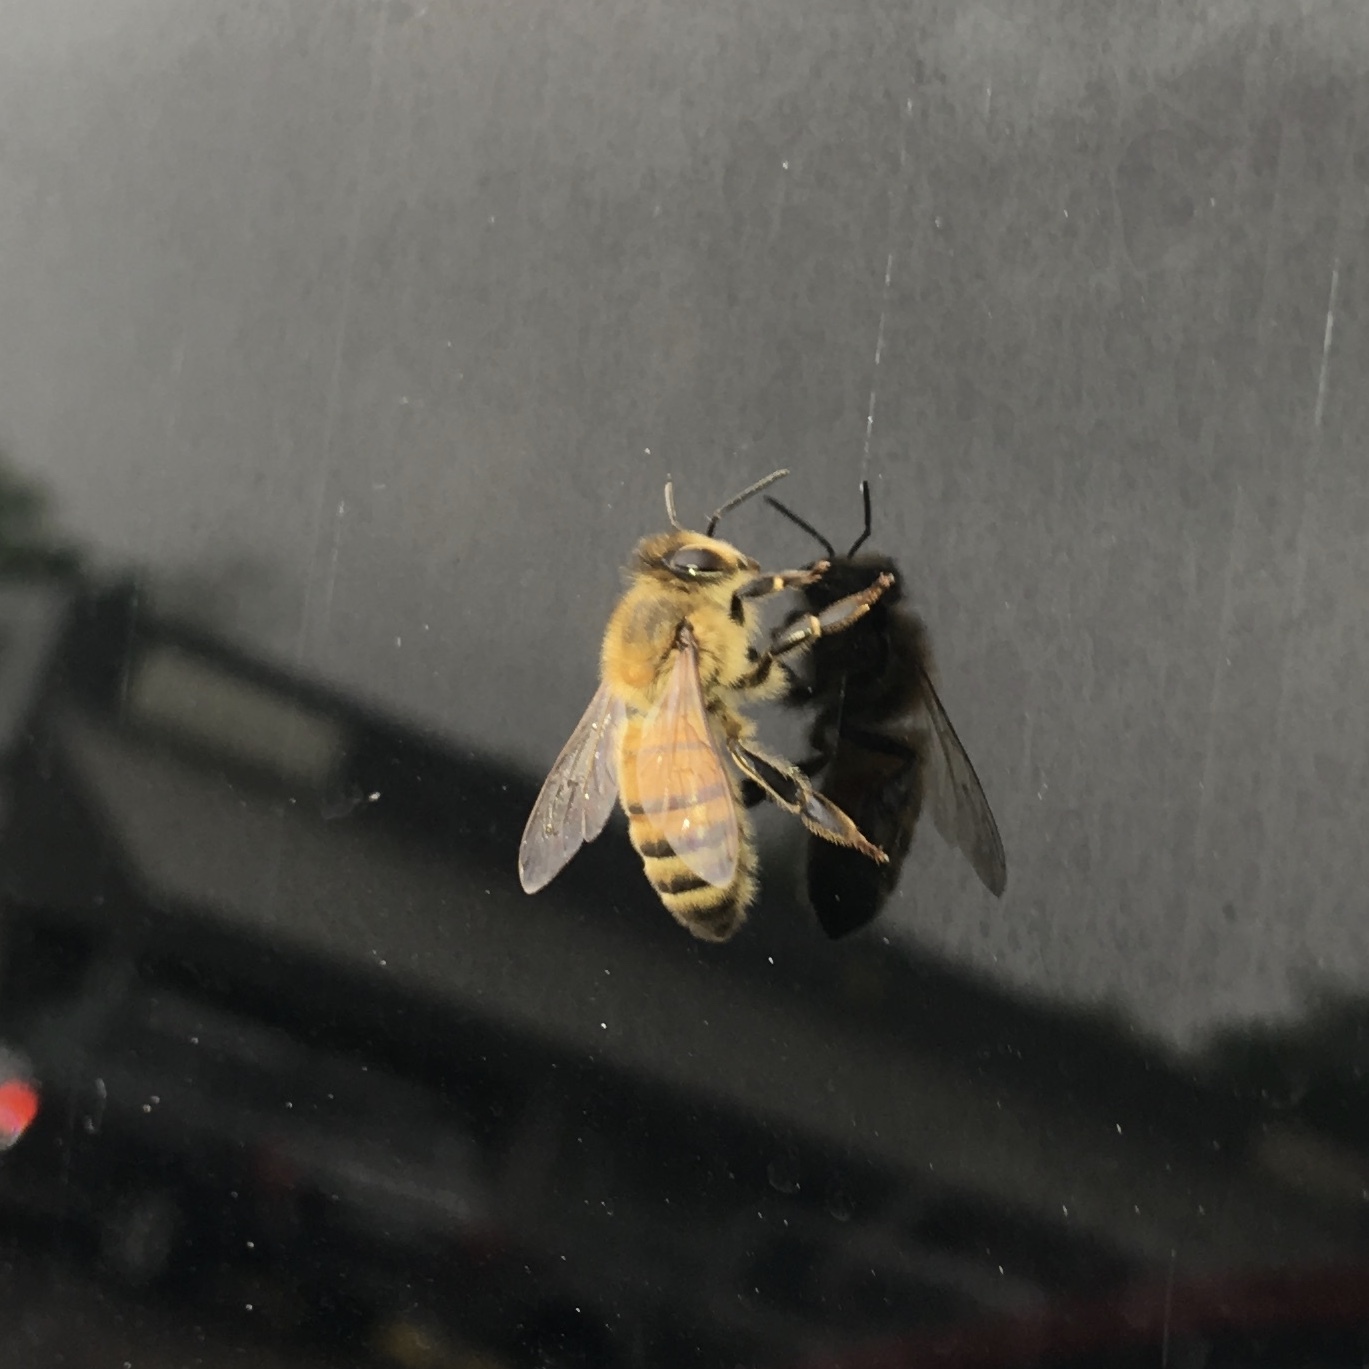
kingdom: Animalia
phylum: Arthropoda
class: Insecta
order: Hymenoptera
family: Apidae
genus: Apis
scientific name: Apis mellifera
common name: Honey bee
